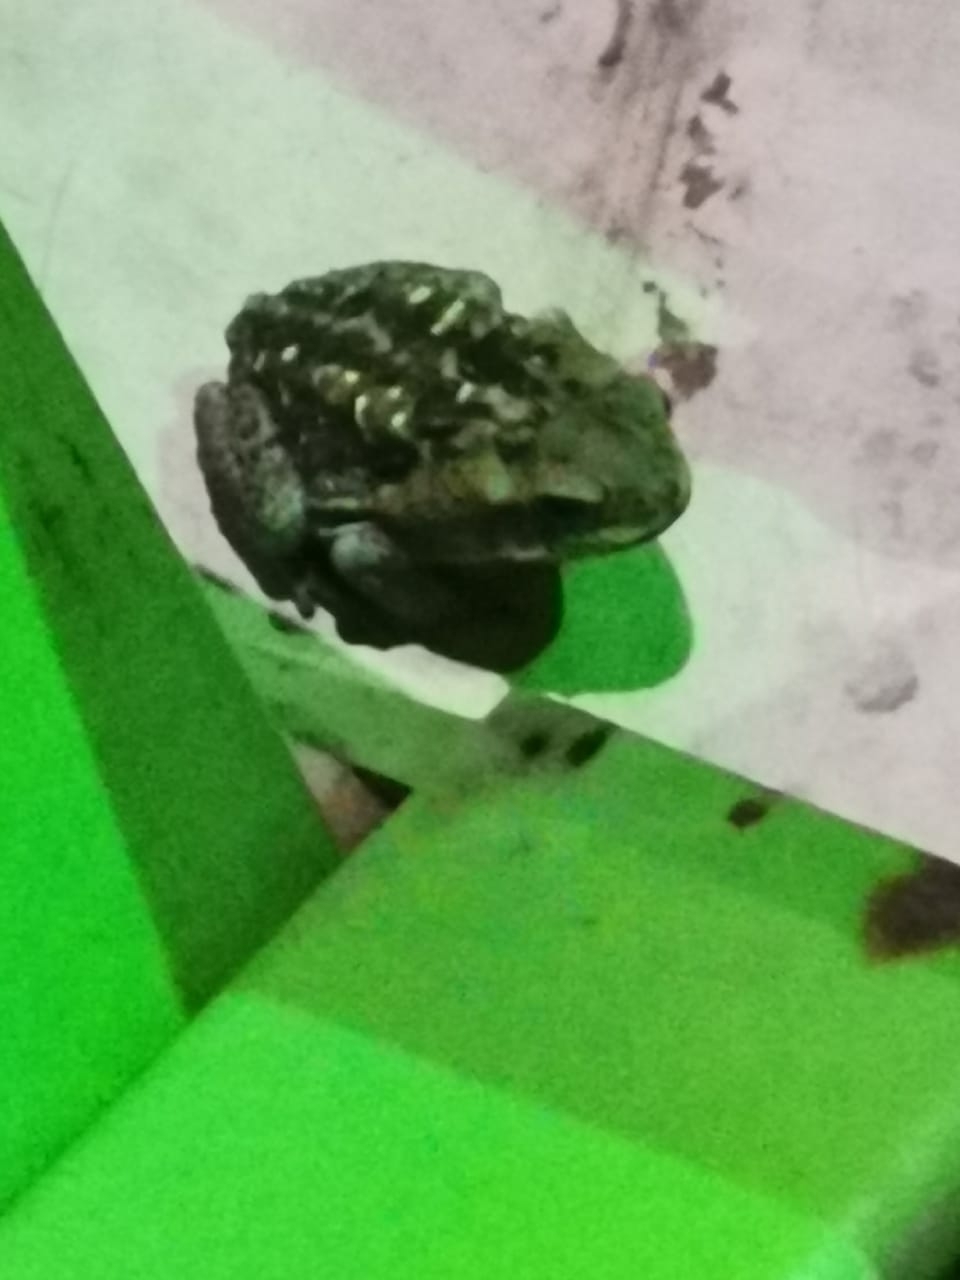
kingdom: Animalia
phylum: Chordata
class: Amphibia
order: Anura
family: Bufonidae
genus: Rhinella
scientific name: Rhinella horribilis
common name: Mesoamerican cane toad
